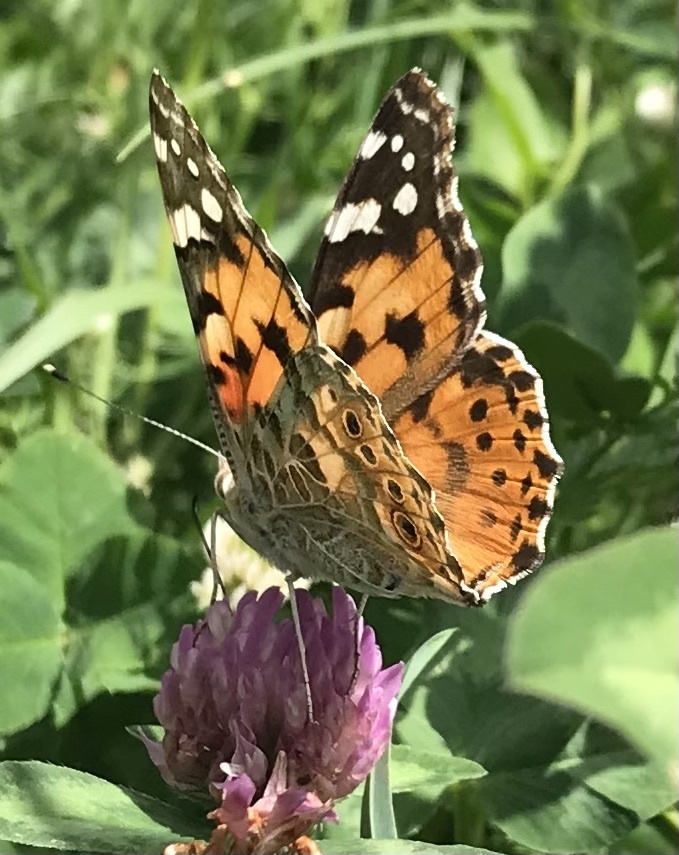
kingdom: Animalia
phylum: Arthropoda
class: Insecta
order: Lepidoptera
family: Nymphalidae
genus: Vanessa
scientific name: Vanessa cardui
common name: Painted lady
